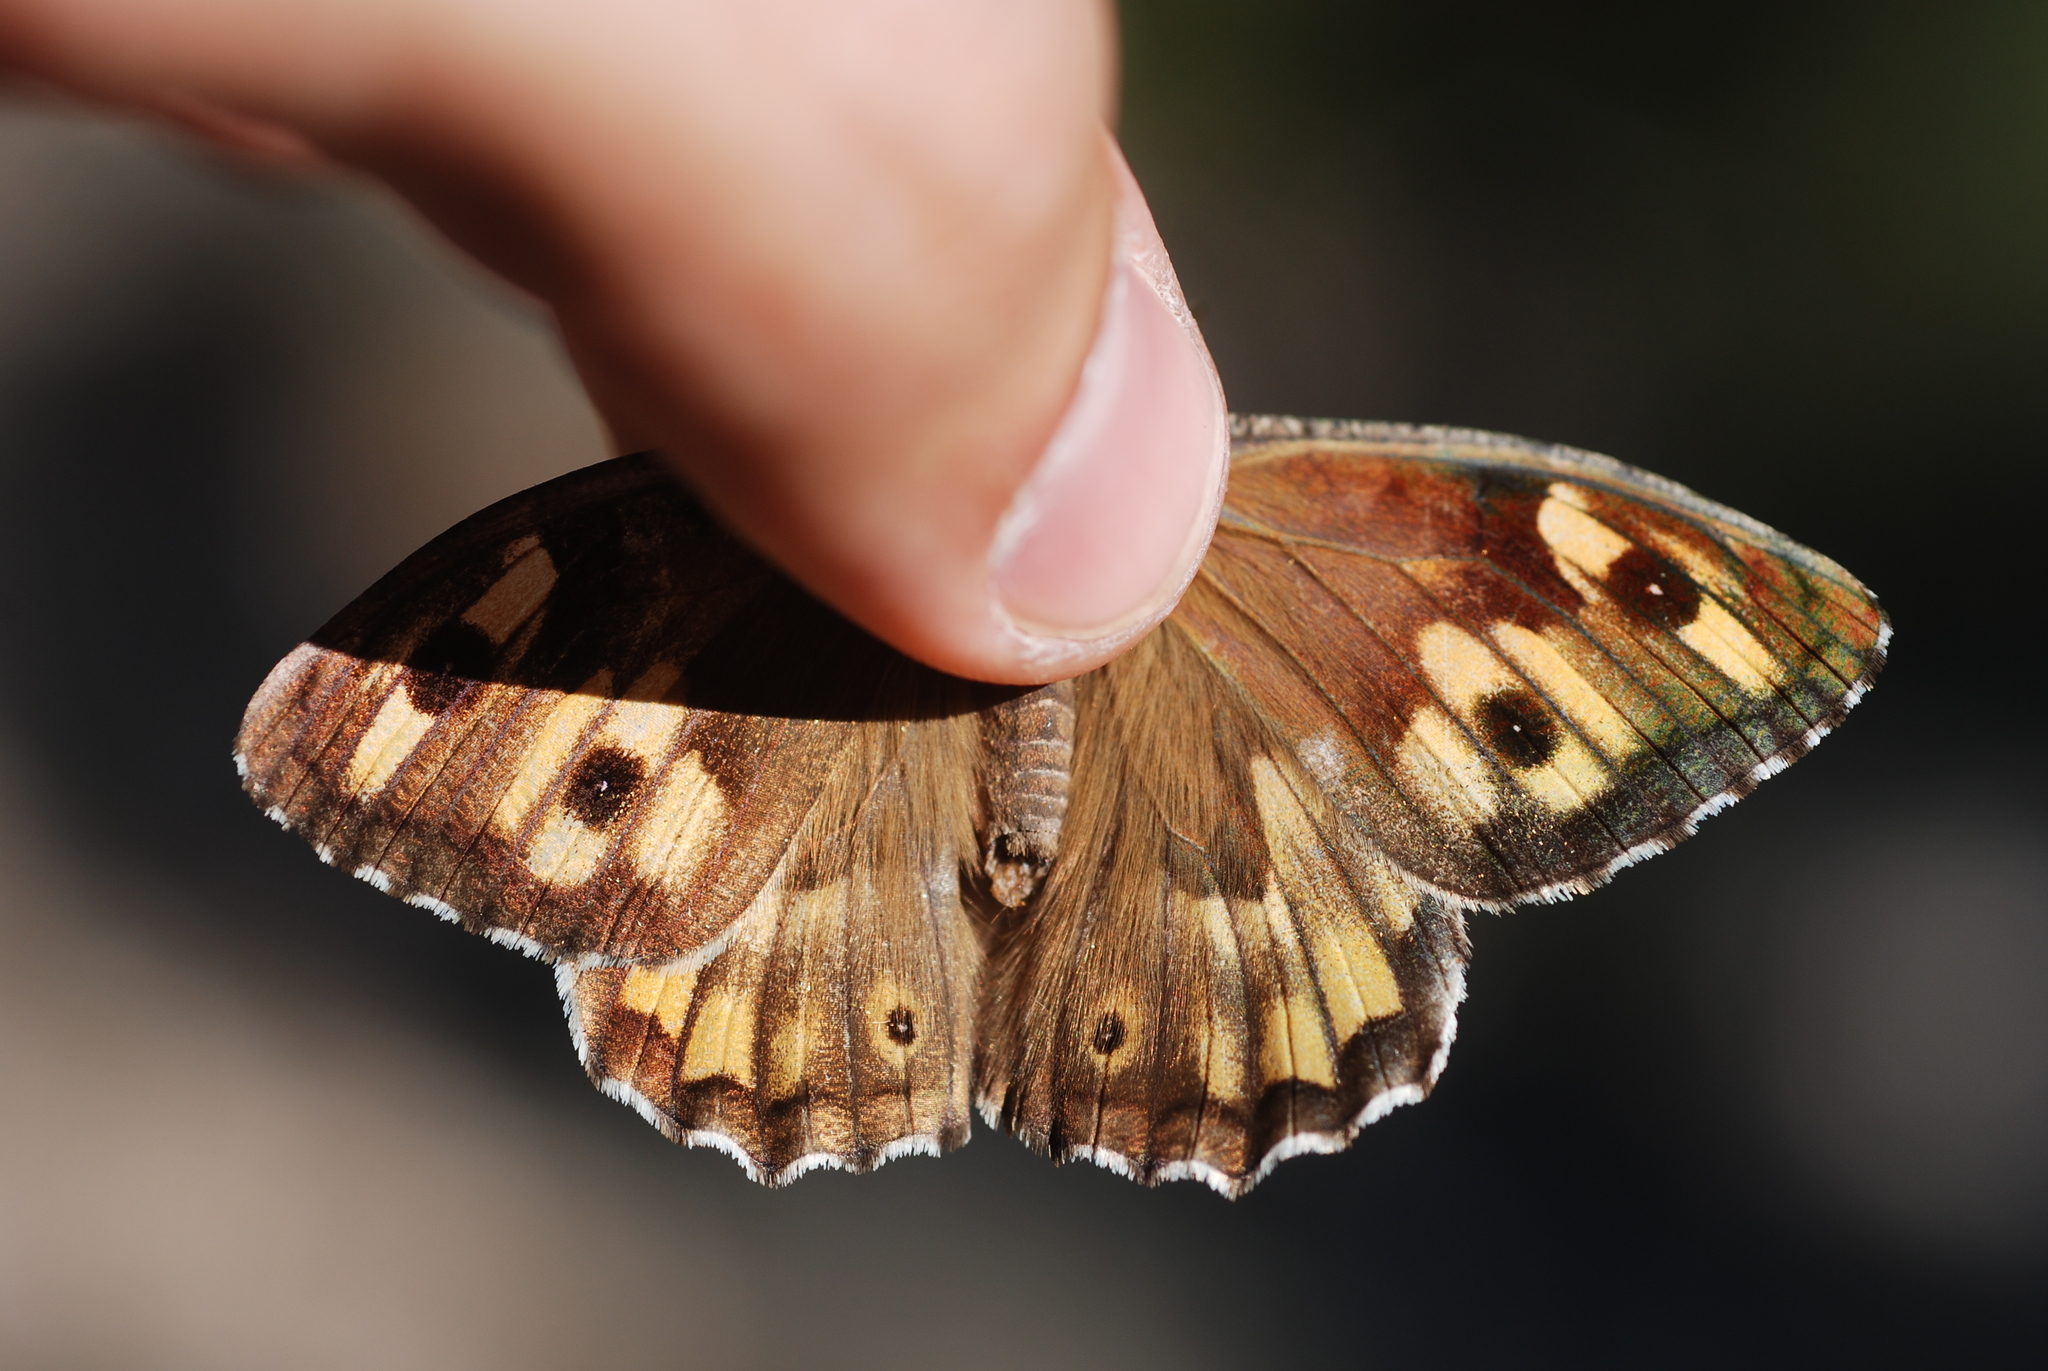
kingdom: Animalia
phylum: Arthropoda
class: Insecta
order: Lepidoptera
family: Nymphalidae
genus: Hipparchia
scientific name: Hipparchia semele
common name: Grayling
